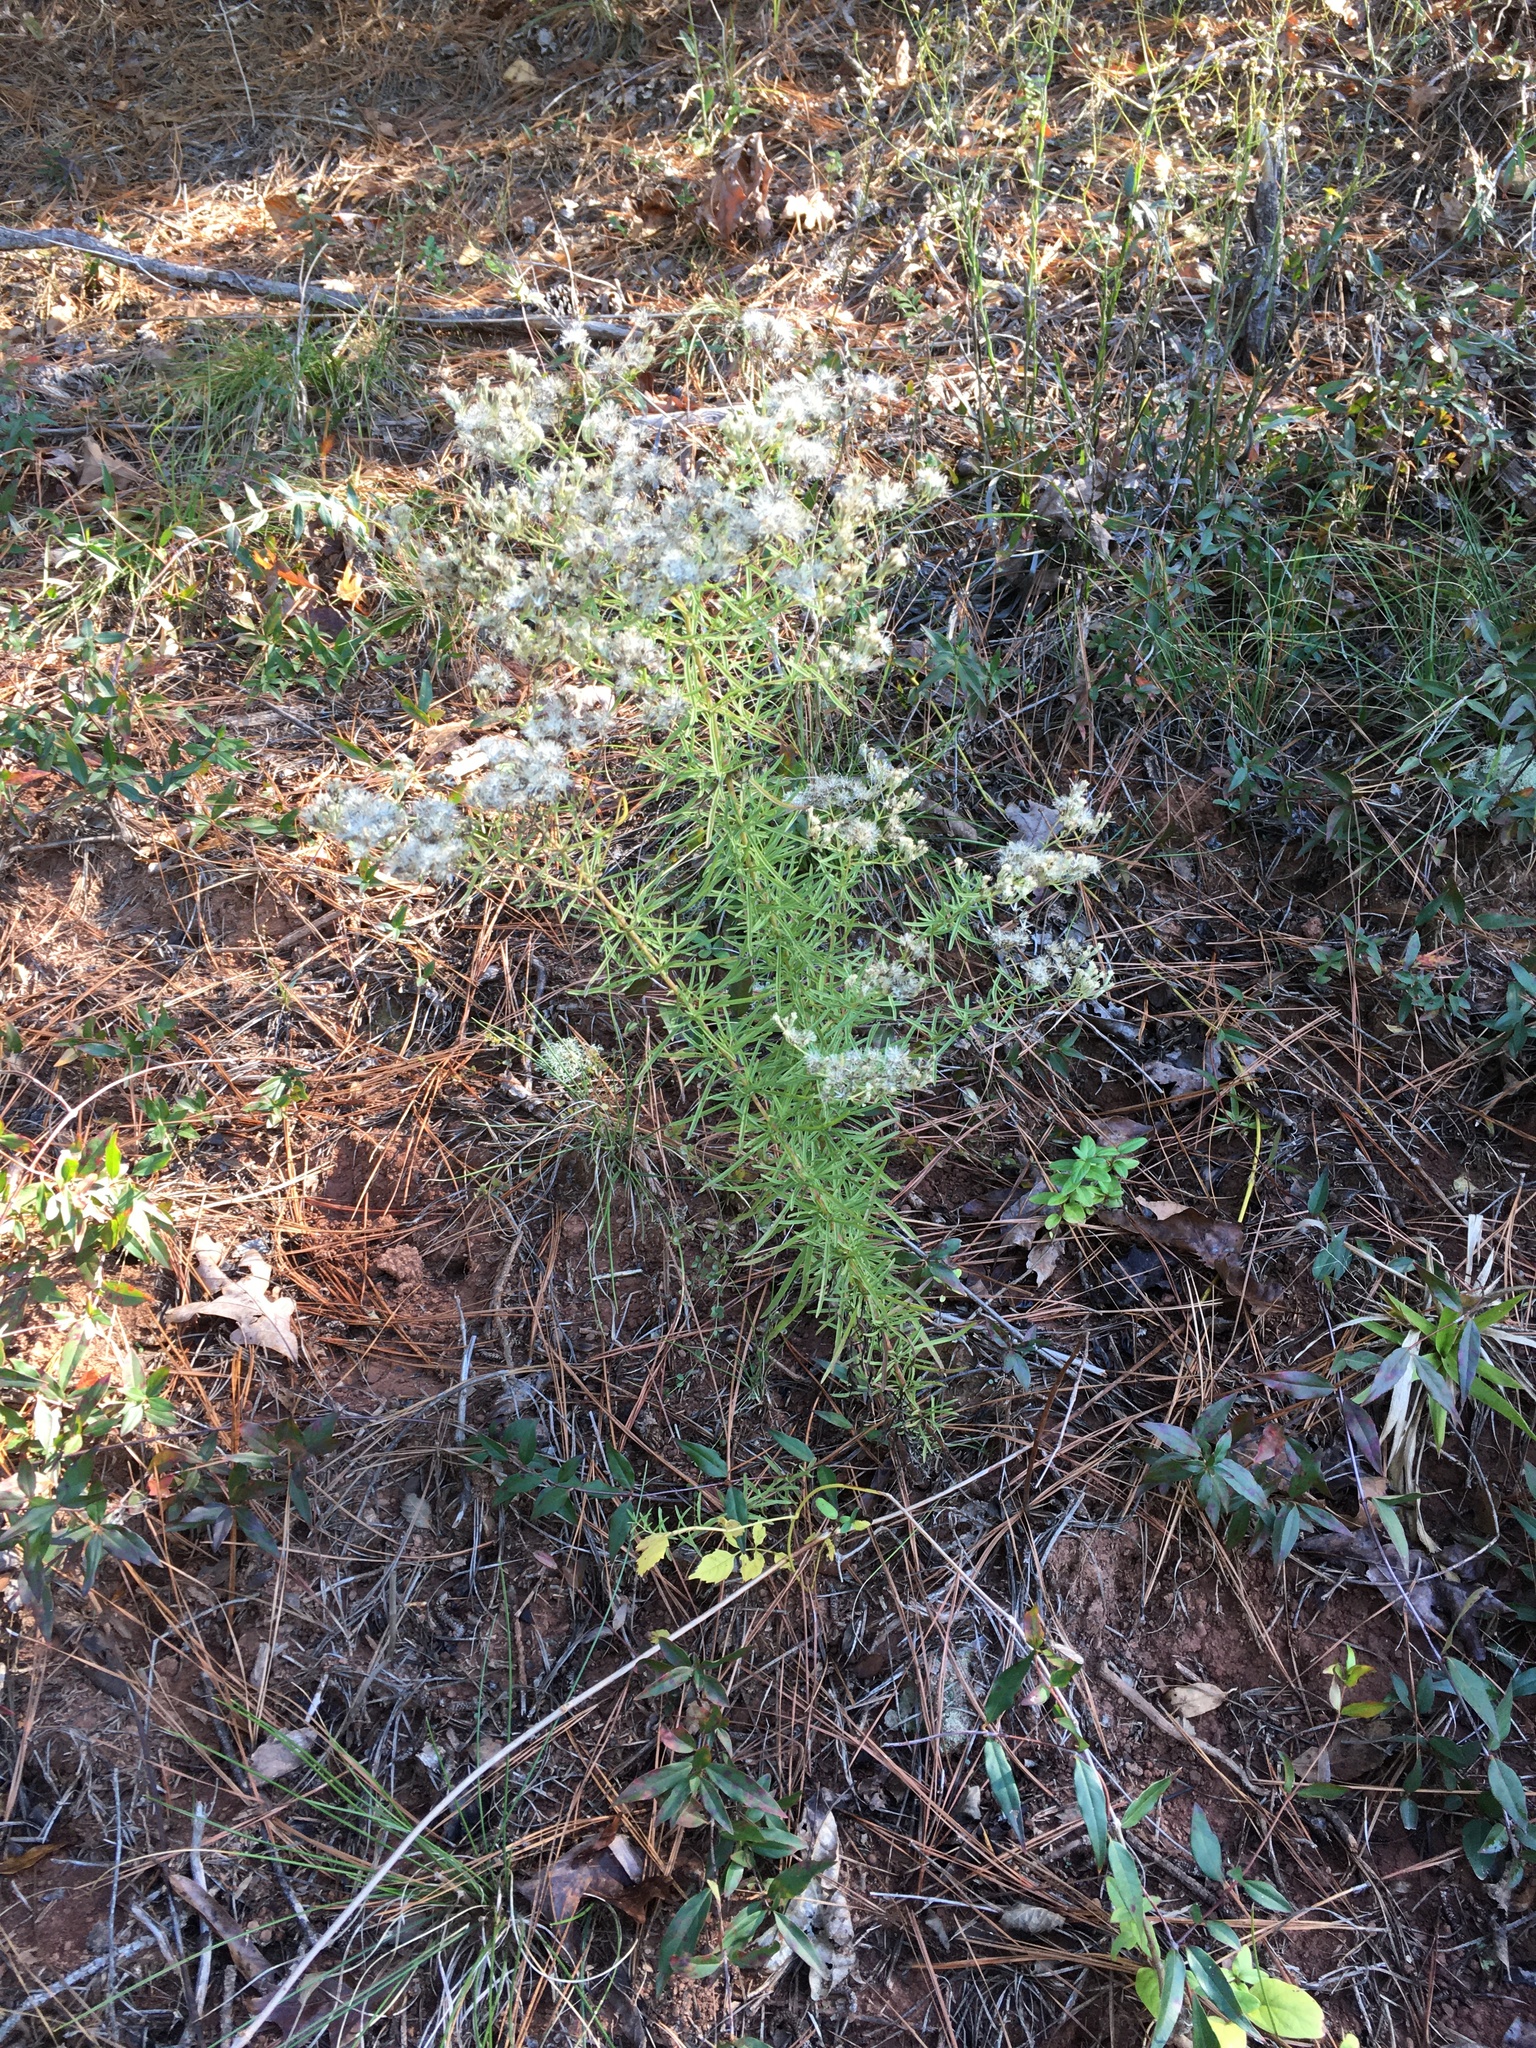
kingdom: Plantae
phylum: Tracheophyta
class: Magnoliopsida
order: Asterales
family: Asteraceae
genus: Eupatorium
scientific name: Eupatorium hyssopifolium
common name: Hyssop-leaf thoroughwort
